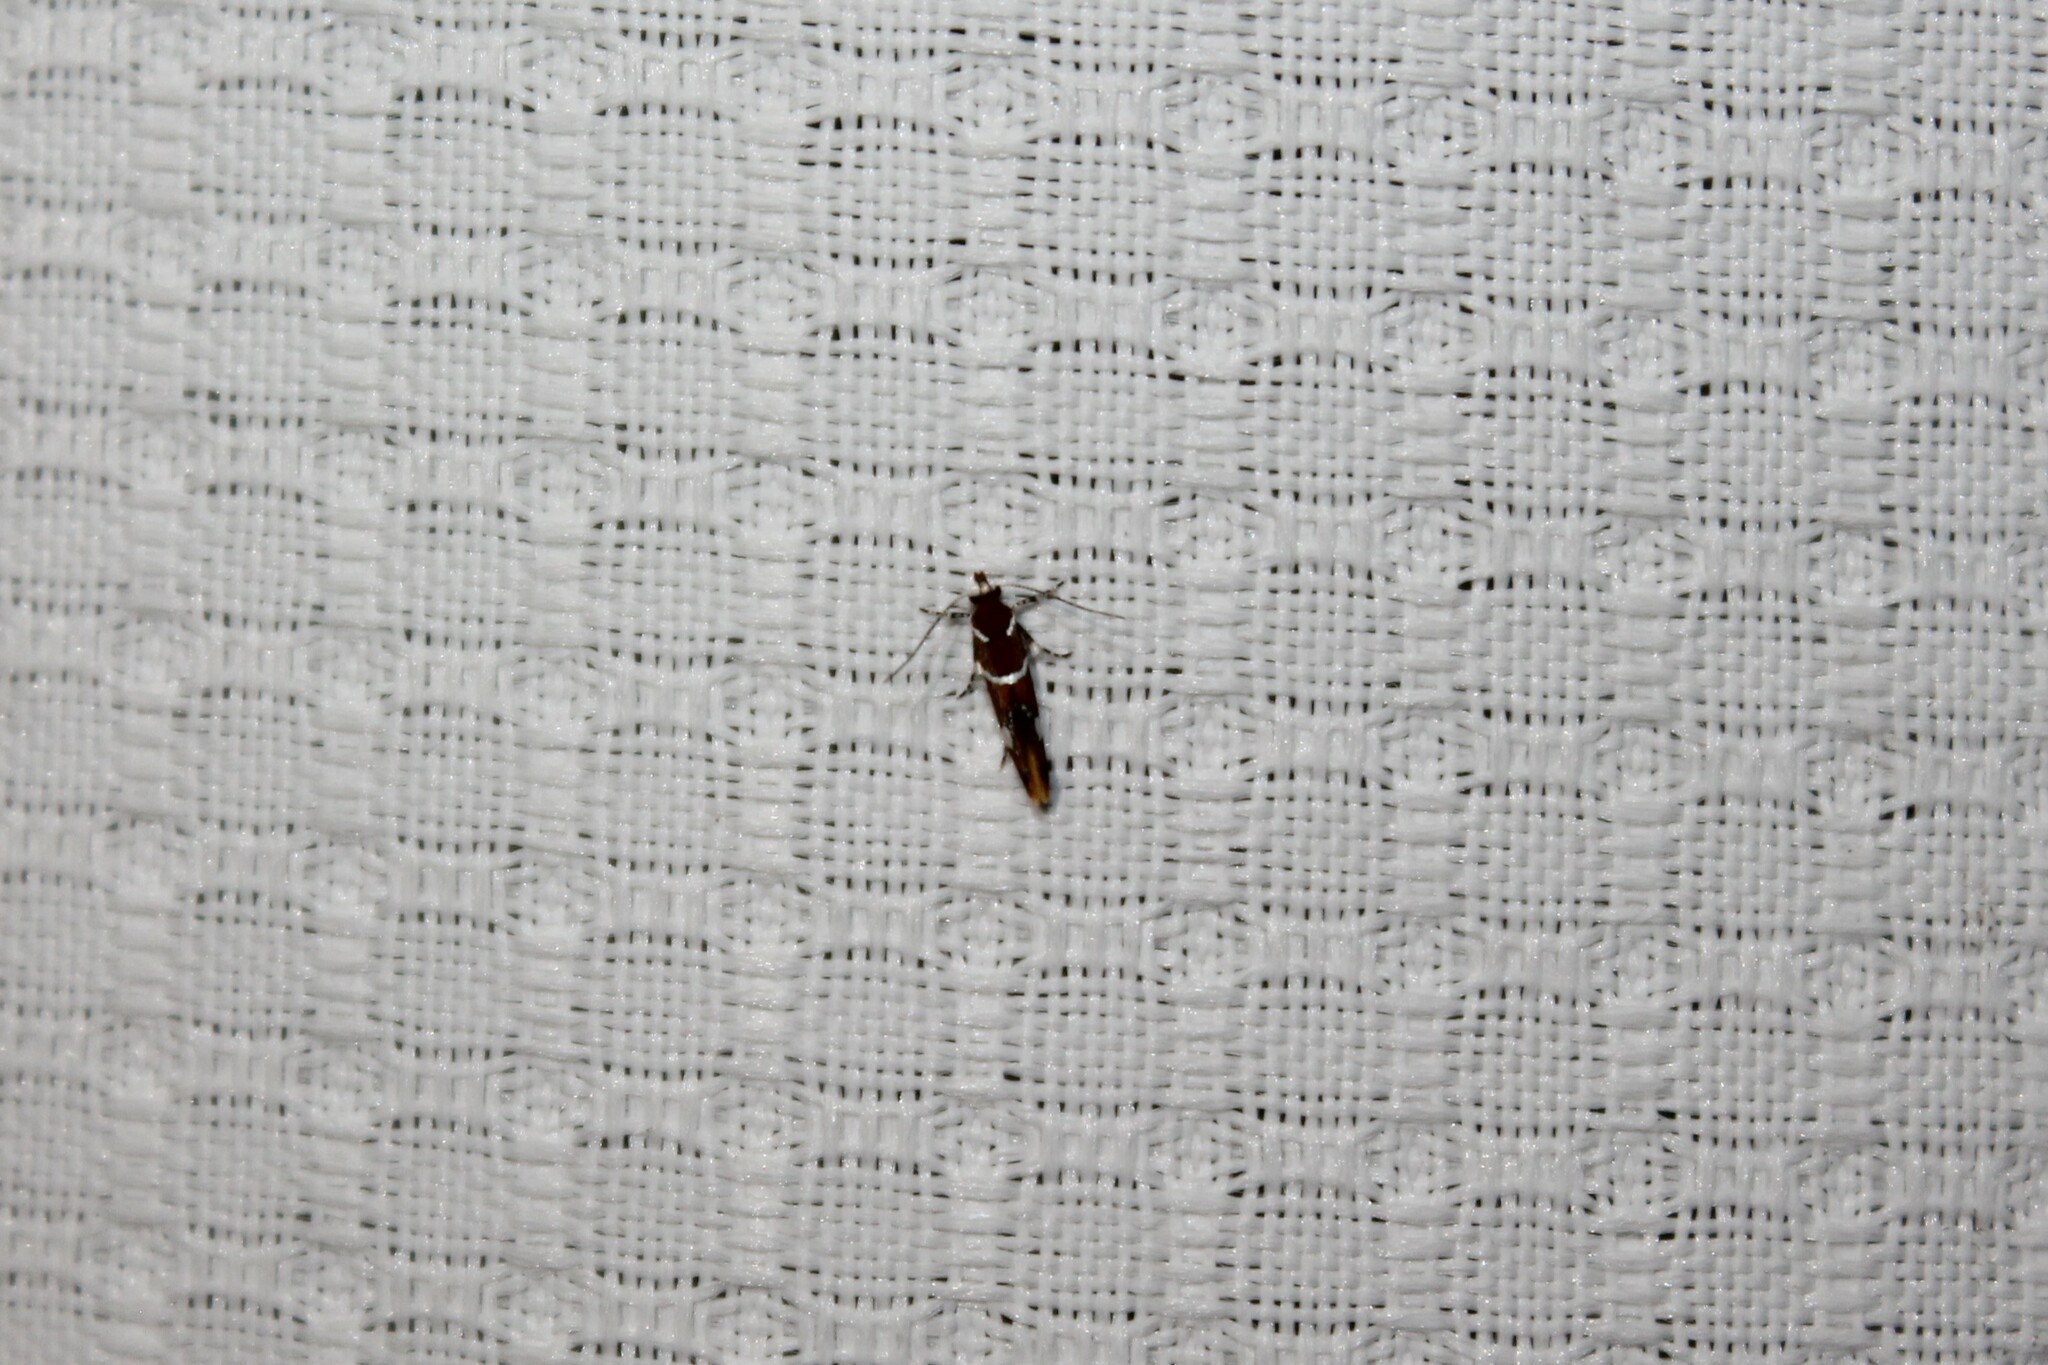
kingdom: Animalia
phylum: Arthropoda
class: Insecta
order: Lepidoptera
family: Oecophoridae
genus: Promalactis
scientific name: Promalactis suzukiella
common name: Moth
